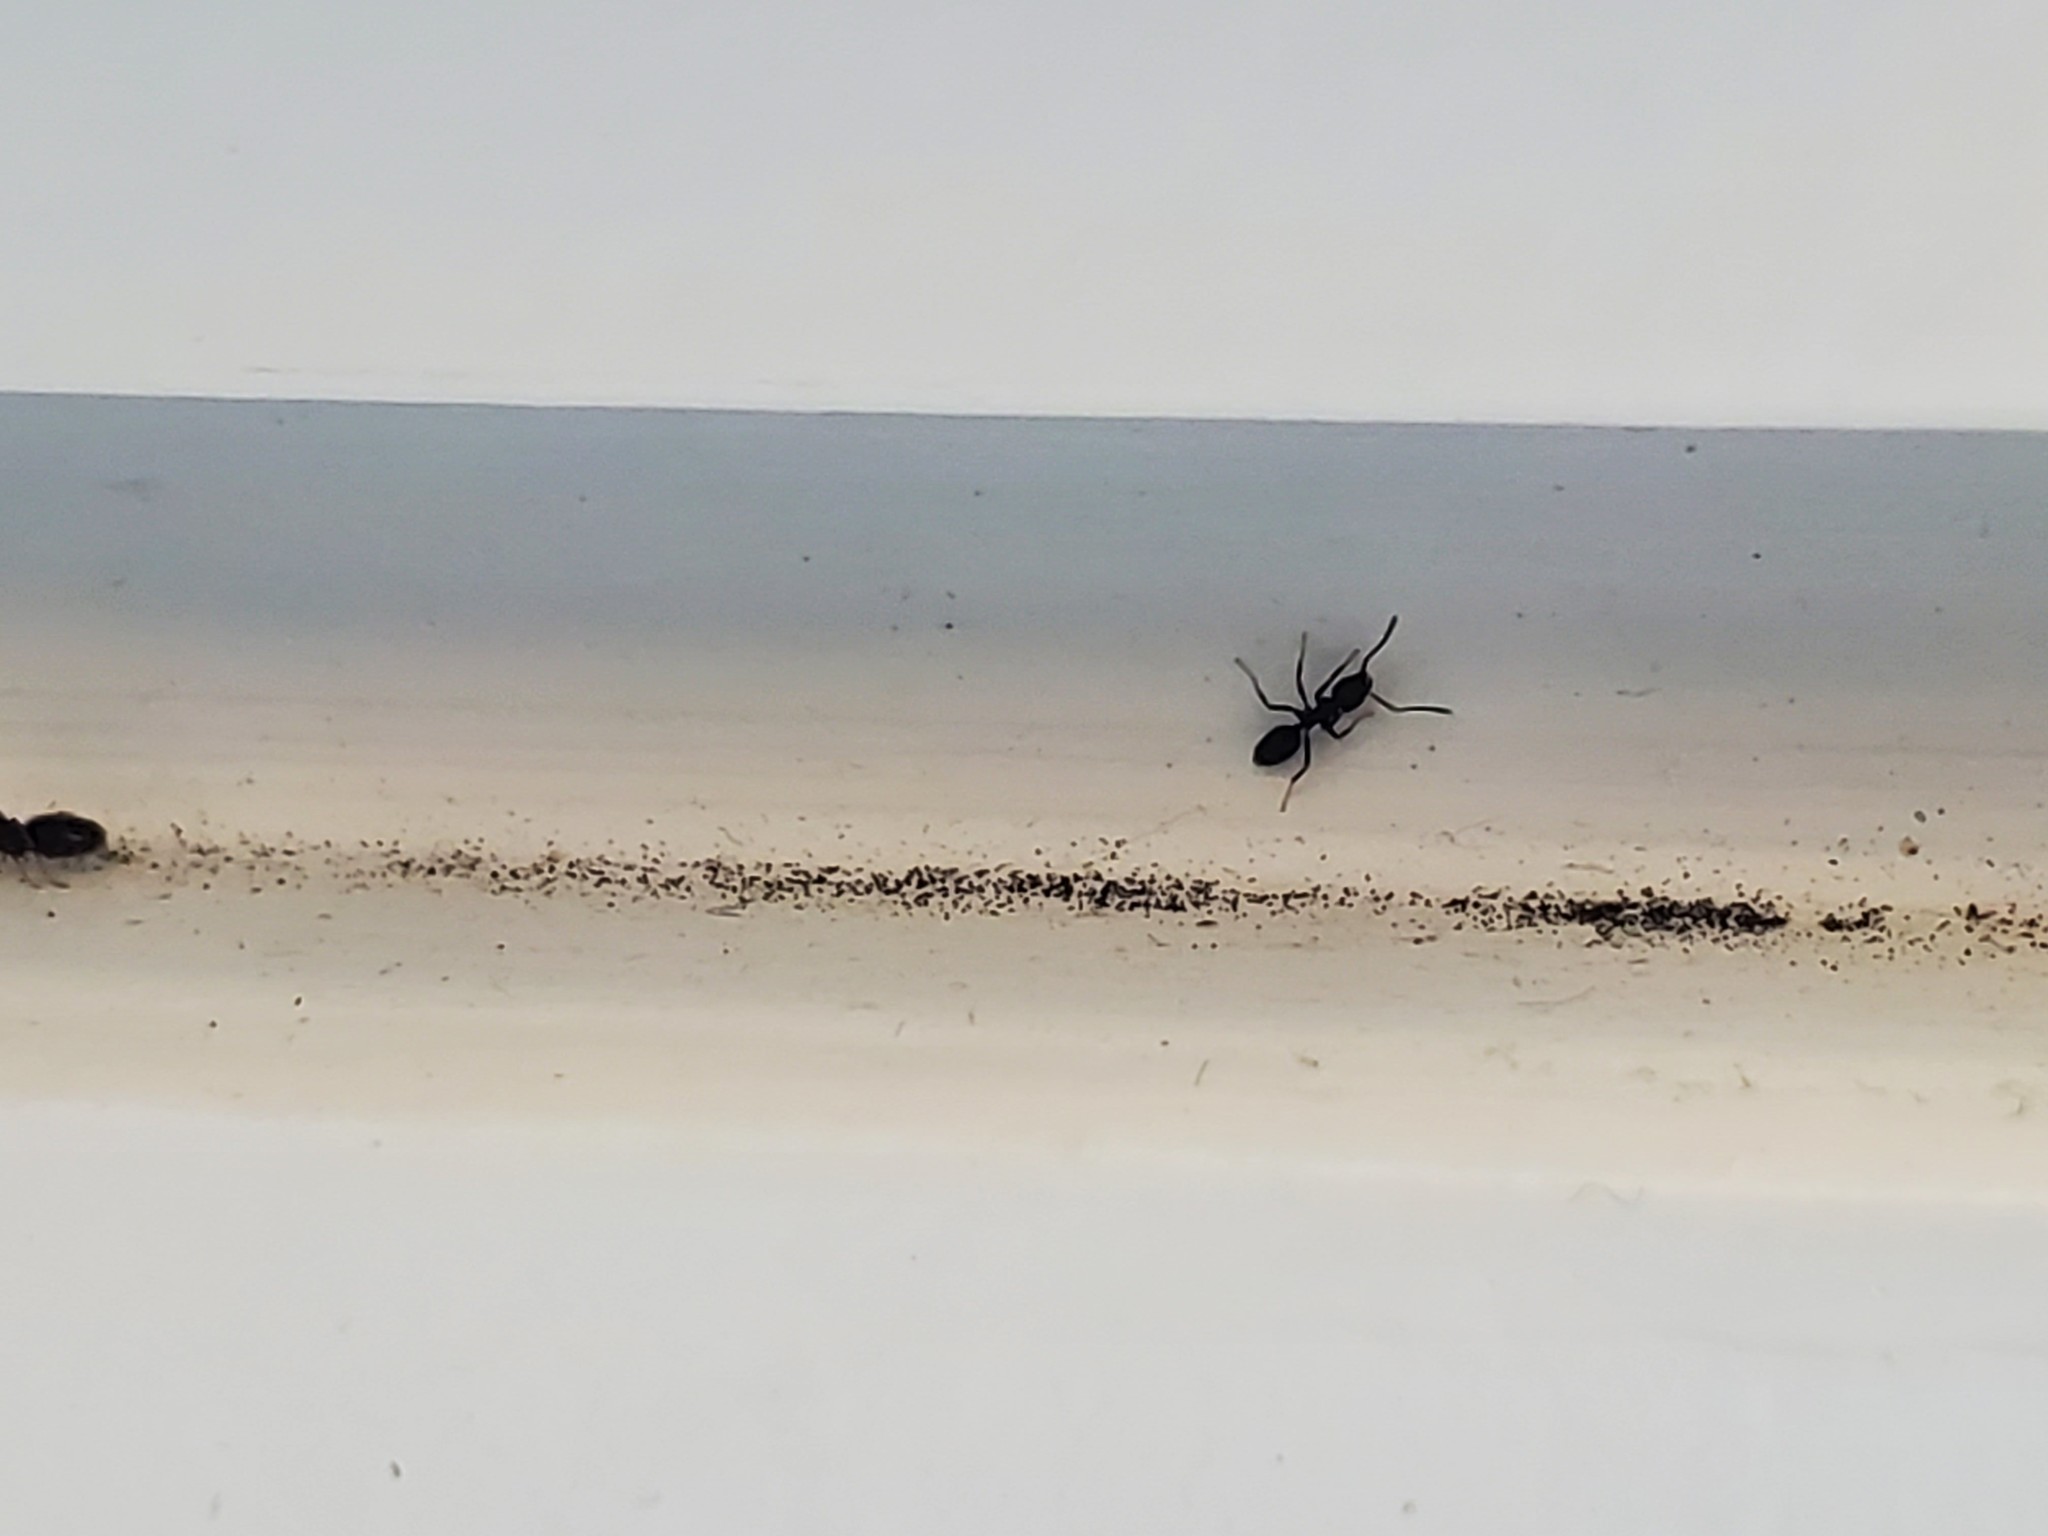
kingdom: Animalia
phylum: Arthropoda
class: Insecta
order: Hymenoptera
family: Formicidae
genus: Tapinoma
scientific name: Tapinoma sessile
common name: Odorous house ant
